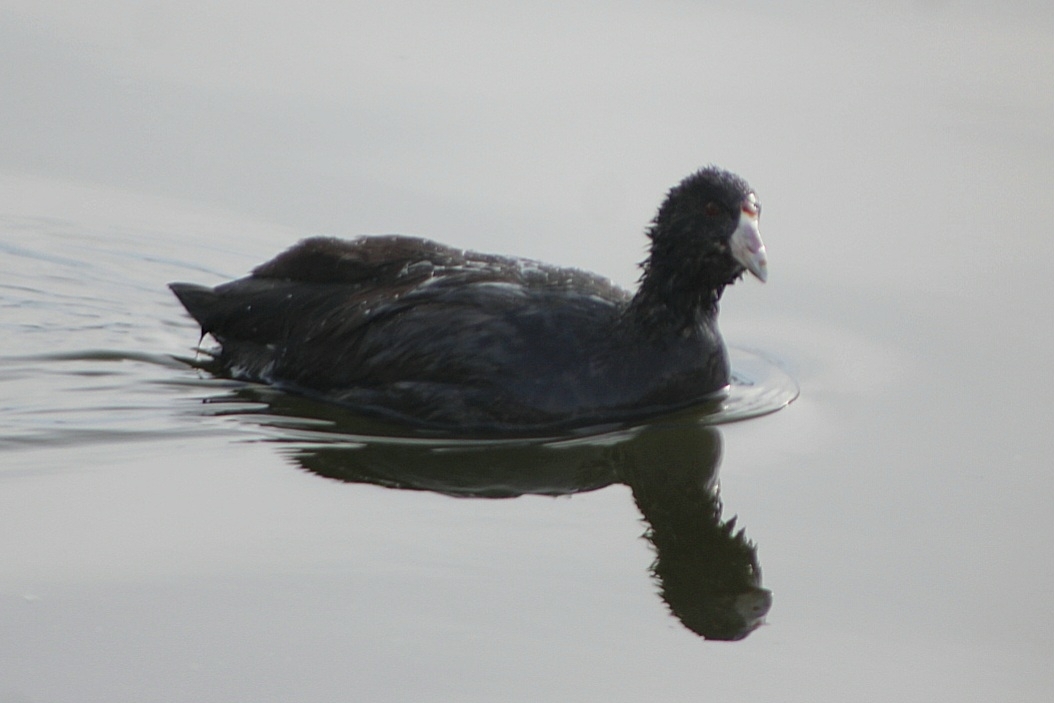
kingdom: Animalia
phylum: Chordata
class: Aves
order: Gruiformes
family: Rallidae
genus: Fulica
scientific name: Fulica americana
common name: American coot
